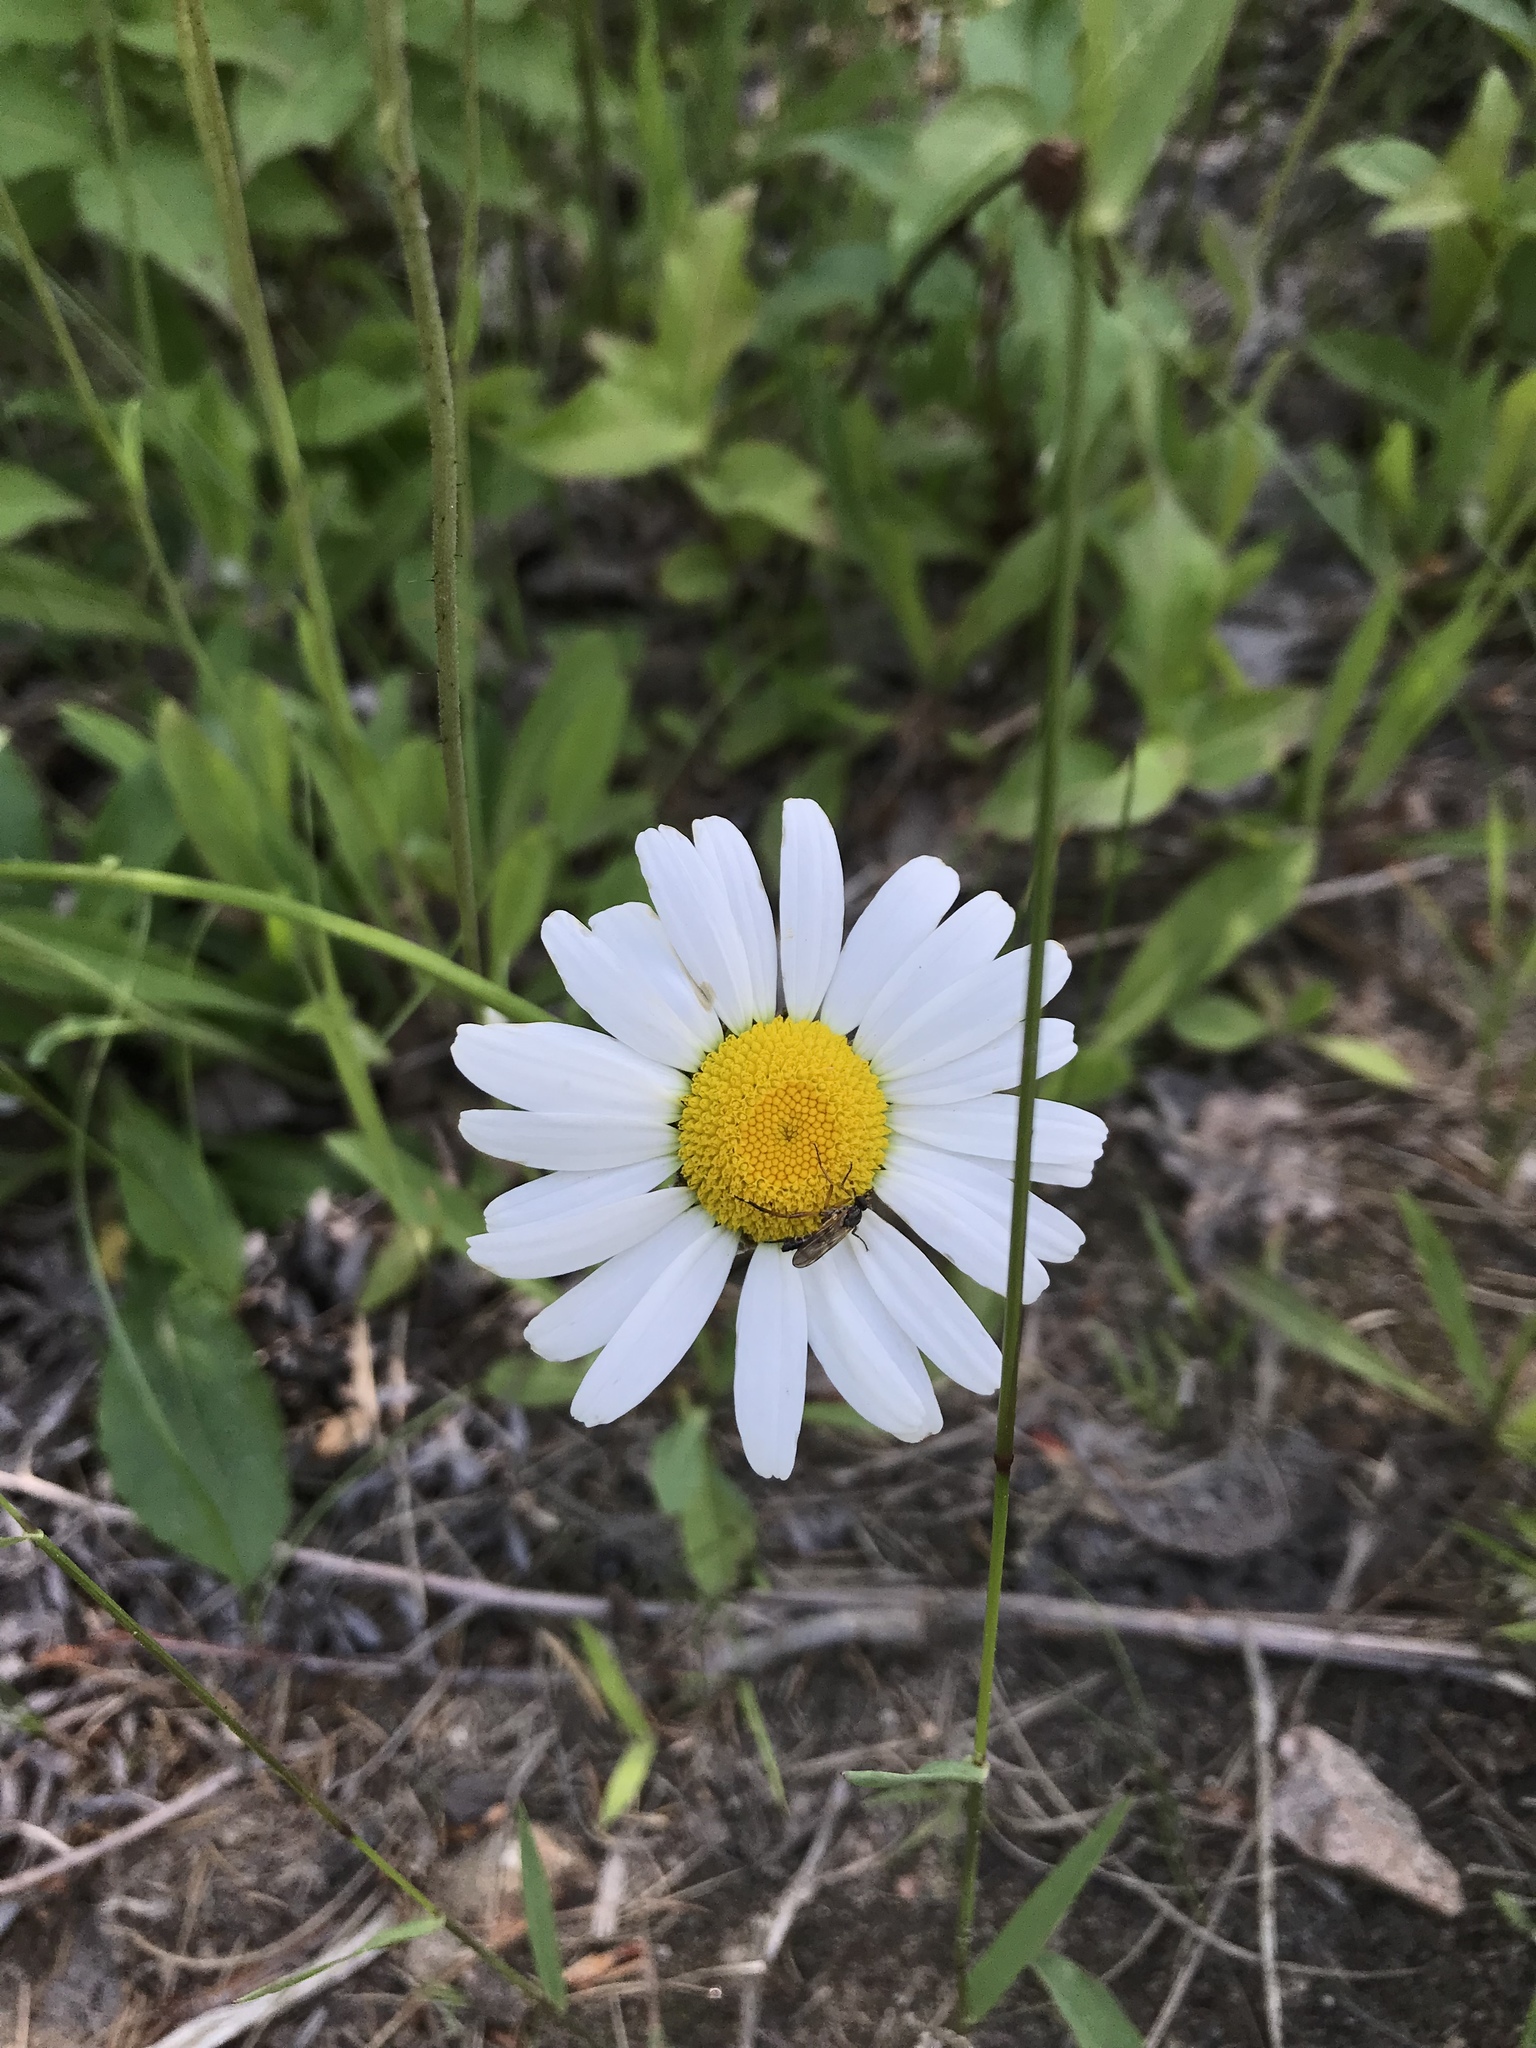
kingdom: Plantae
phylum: Tracheophyta
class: Magnoliopsida
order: Asterales
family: Asteraceae
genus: Leucanthemum
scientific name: Leucanthemum vulgare
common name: Oxeye daisy
